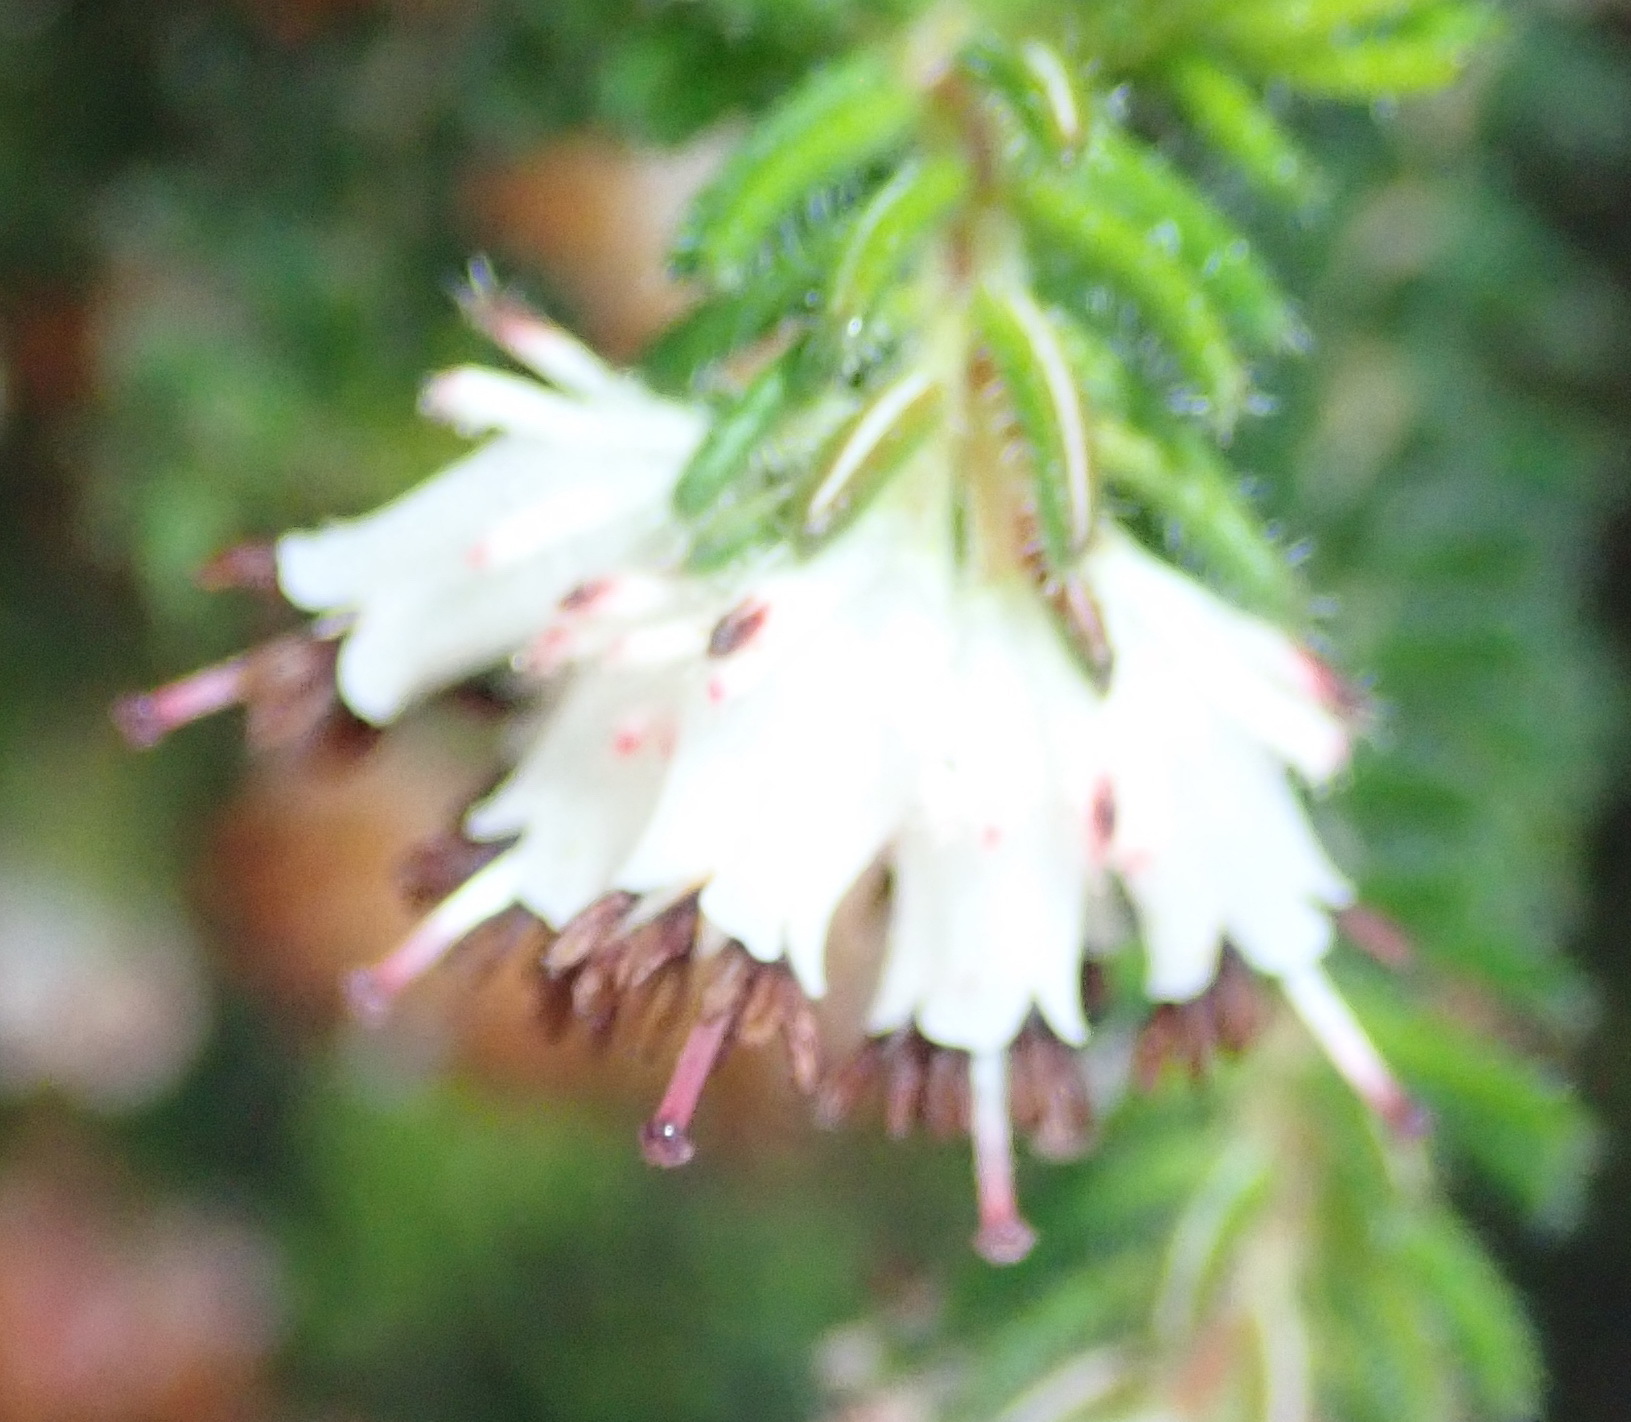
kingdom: Plantae
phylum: Tracheophyta
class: Magnoliopsida
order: Ericales
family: Ericaceae
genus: Erica
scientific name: Erica stylaris
